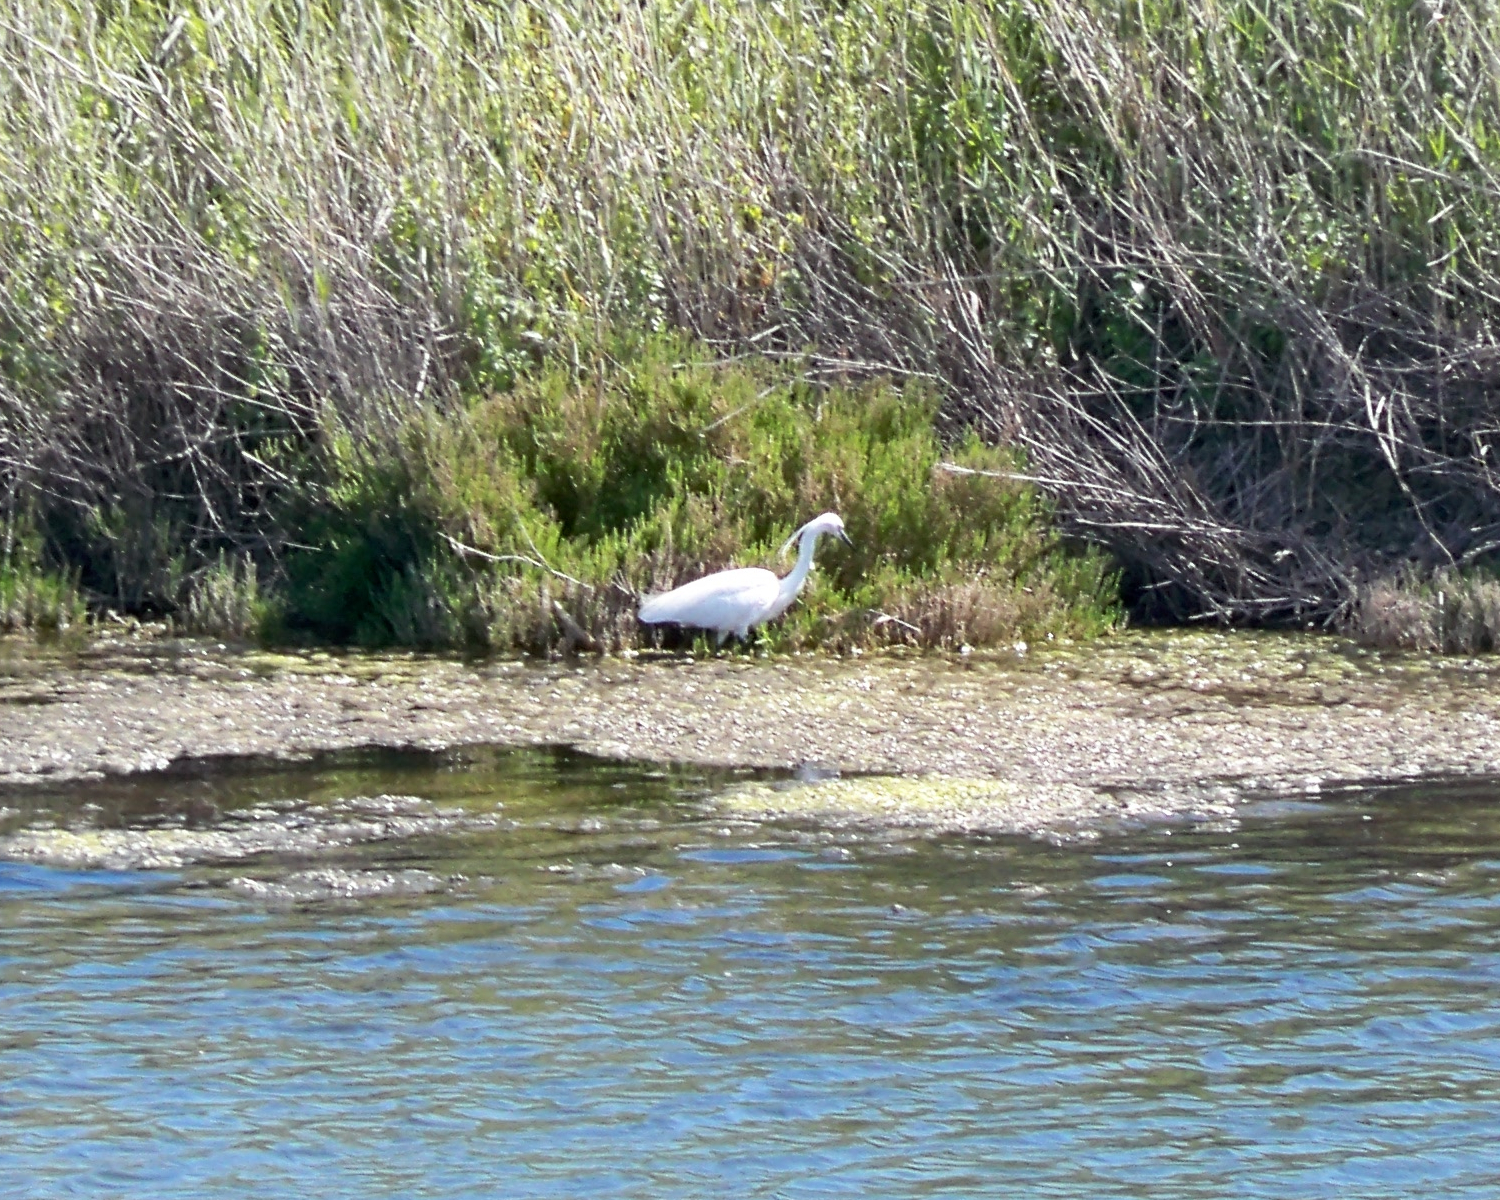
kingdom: Animalia
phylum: Chordata
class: Aves
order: Pelecaniformes
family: Ardeidae
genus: Egretta
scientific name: Egretta garzetta
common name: Little egret
